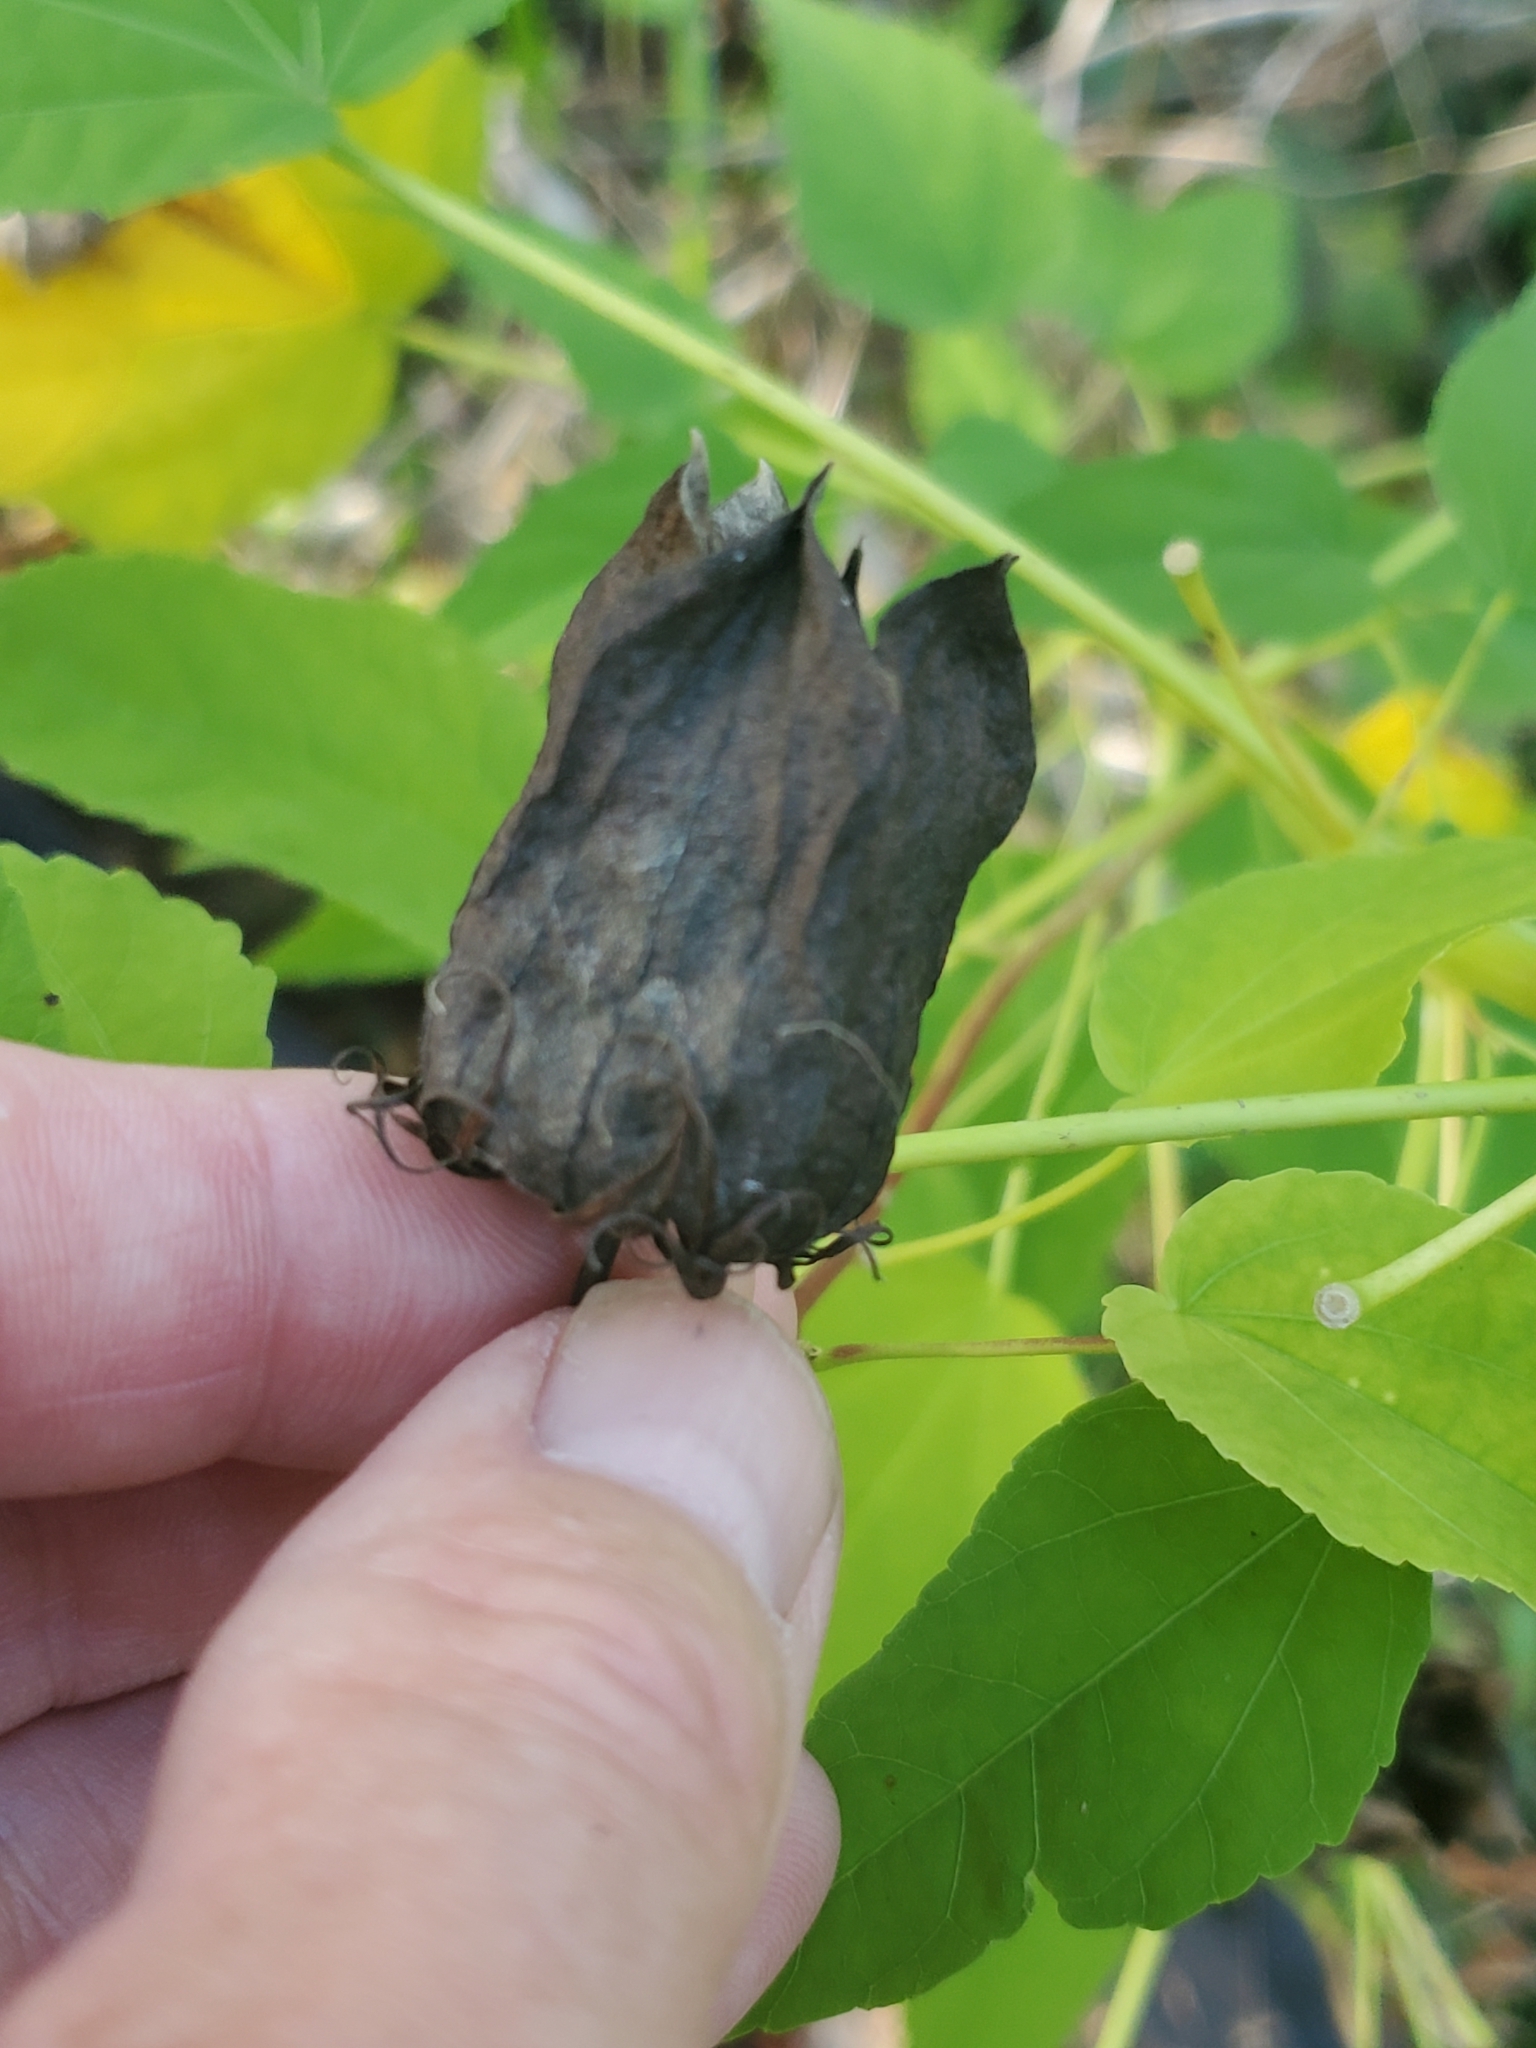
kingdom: Plantae
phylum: Tracheophyta
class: Magnoliopsida
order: Malvales
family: Malvaceae
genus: Hibiscus
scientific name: Hibiscus laevis
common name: Scarlet rose-mallow
